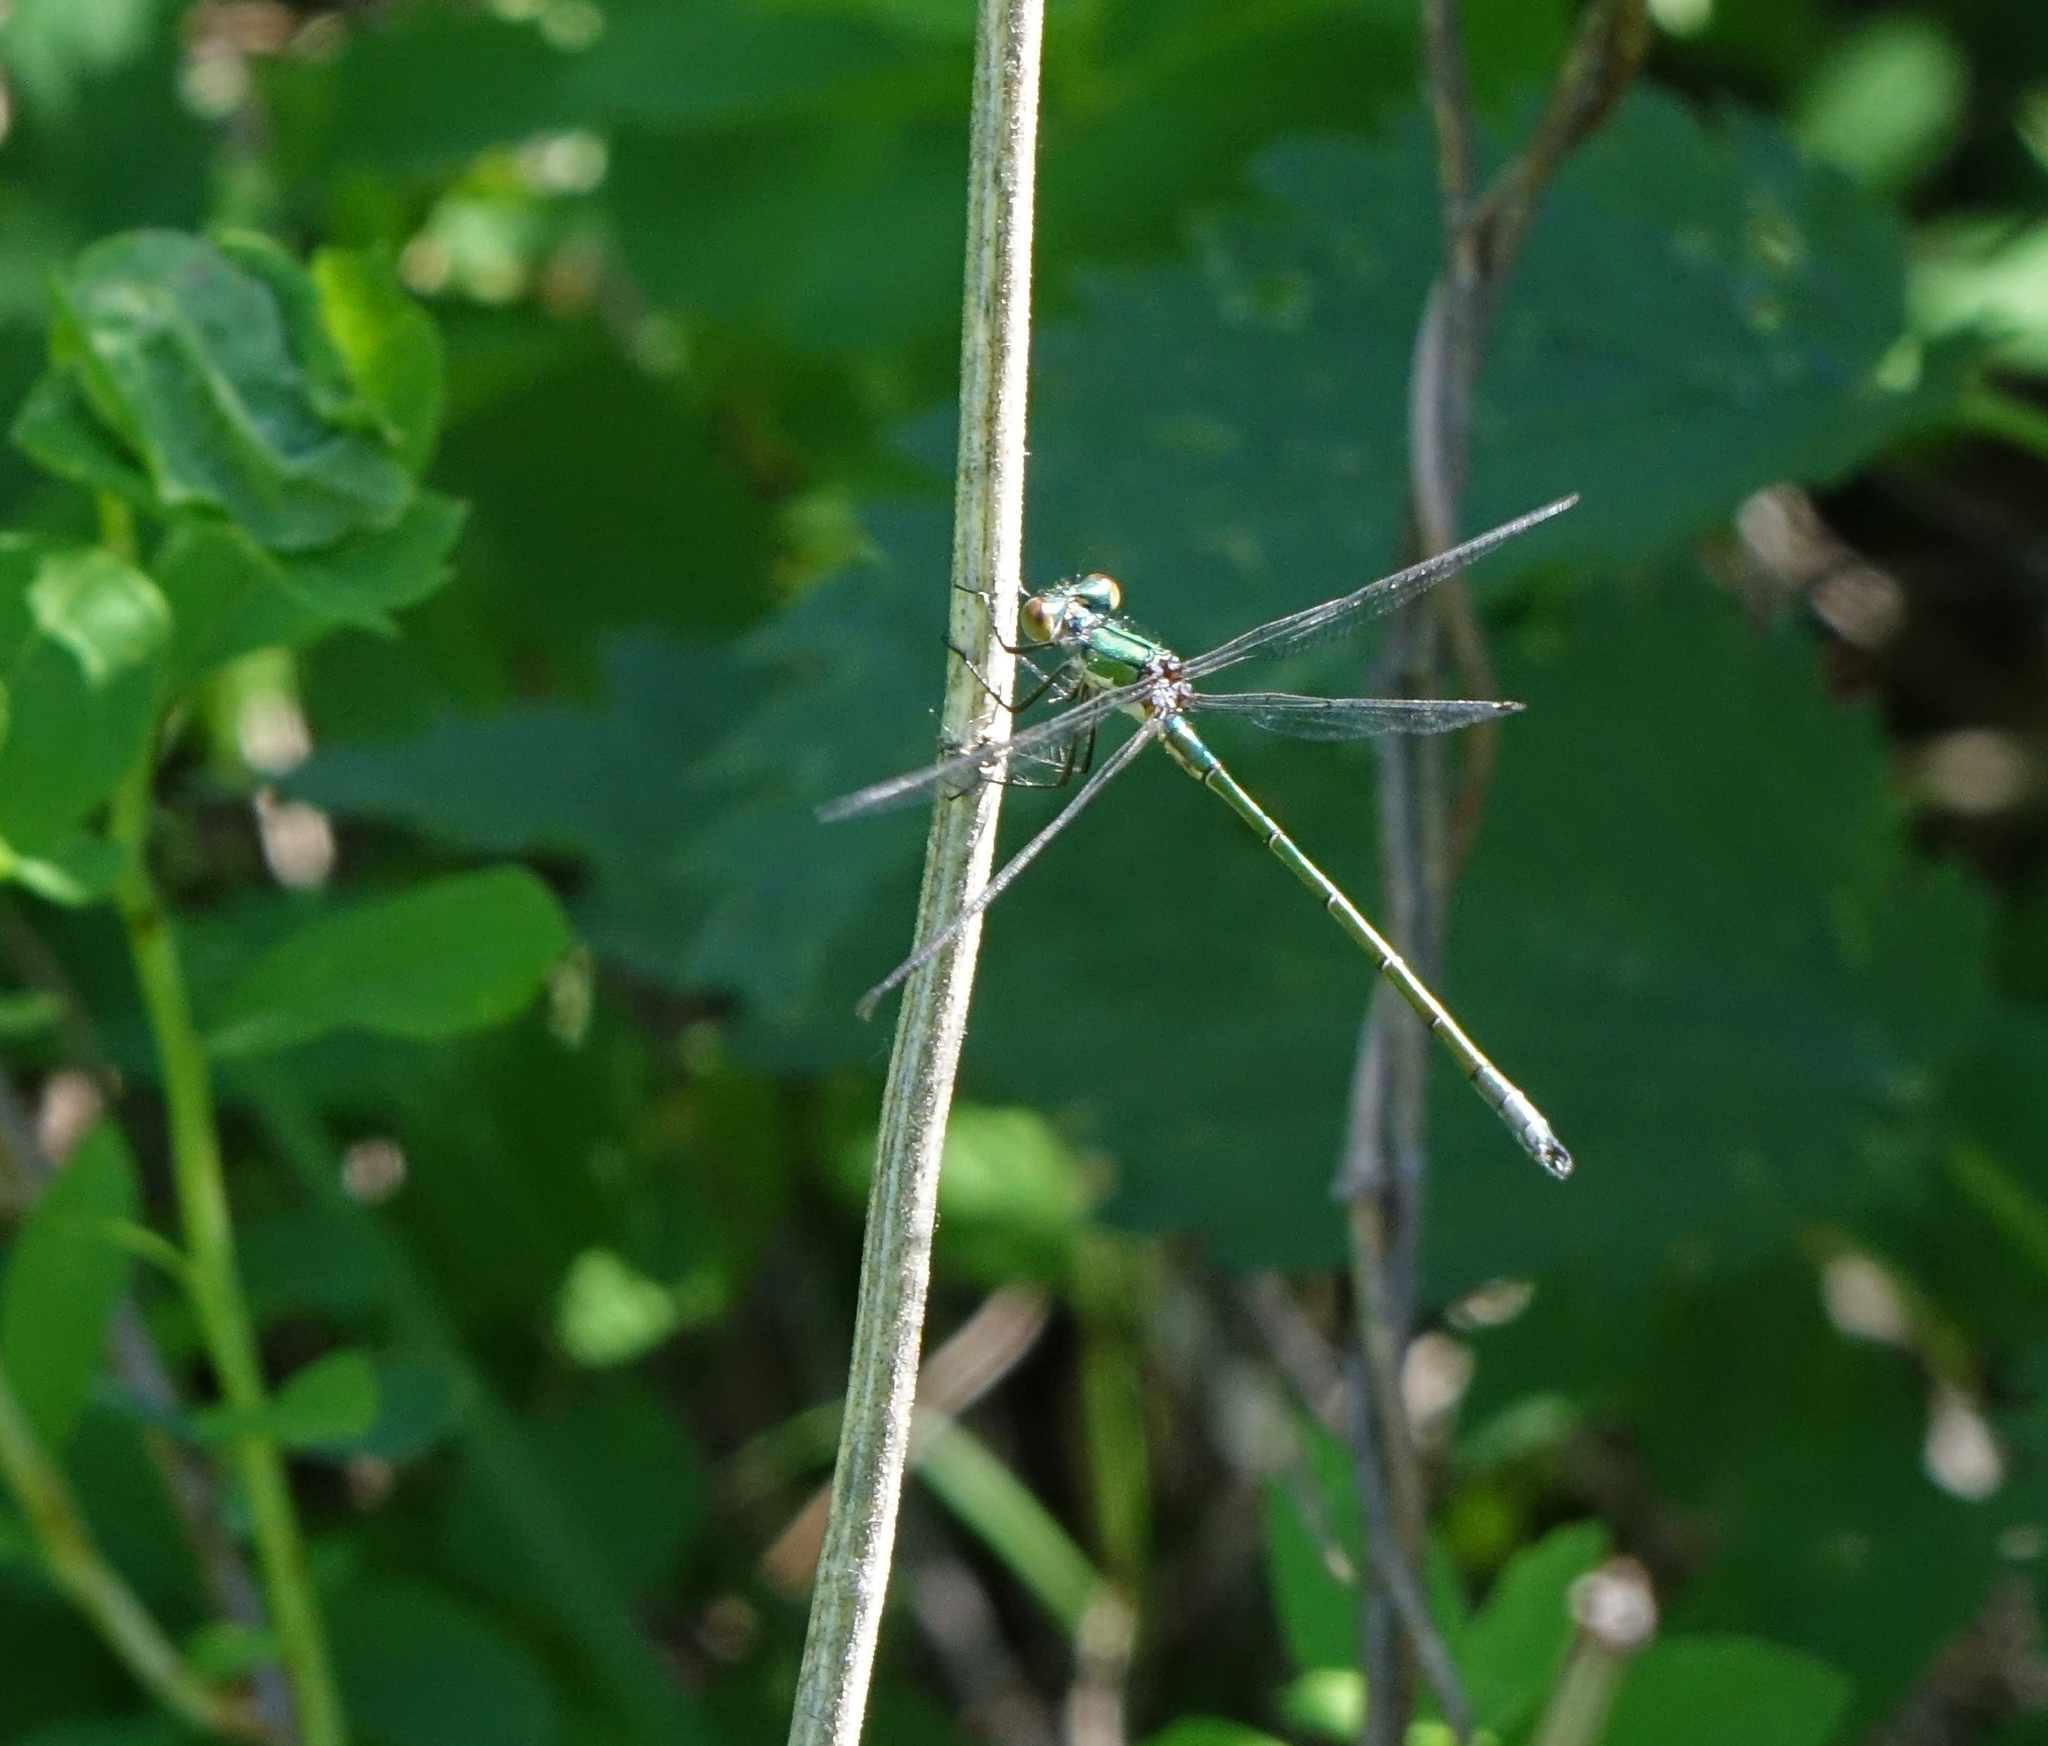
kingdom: Animalia
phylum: Arthropoda
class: Insecta
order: Odonata
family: Lestidae
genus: Lestes
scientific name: Lestes dryas
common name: Scarce emerald damselfly
